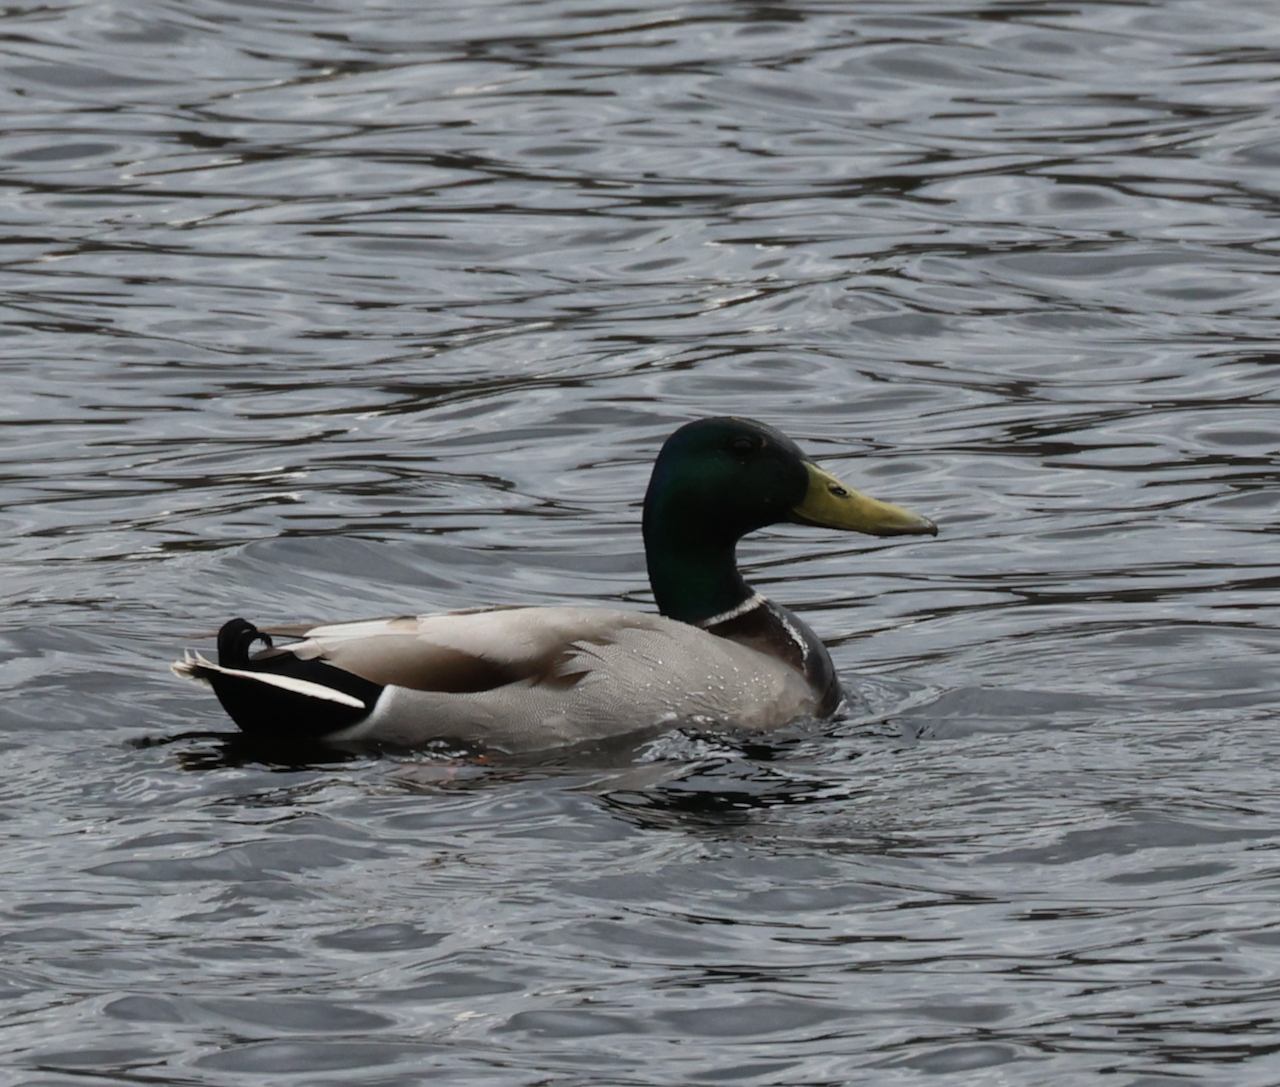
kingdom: Animalia
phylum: Chordata
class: Aves
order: Anseriformes
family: Anatidae
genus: Anas
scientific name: Anas platyrhynchos
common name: Mallard
